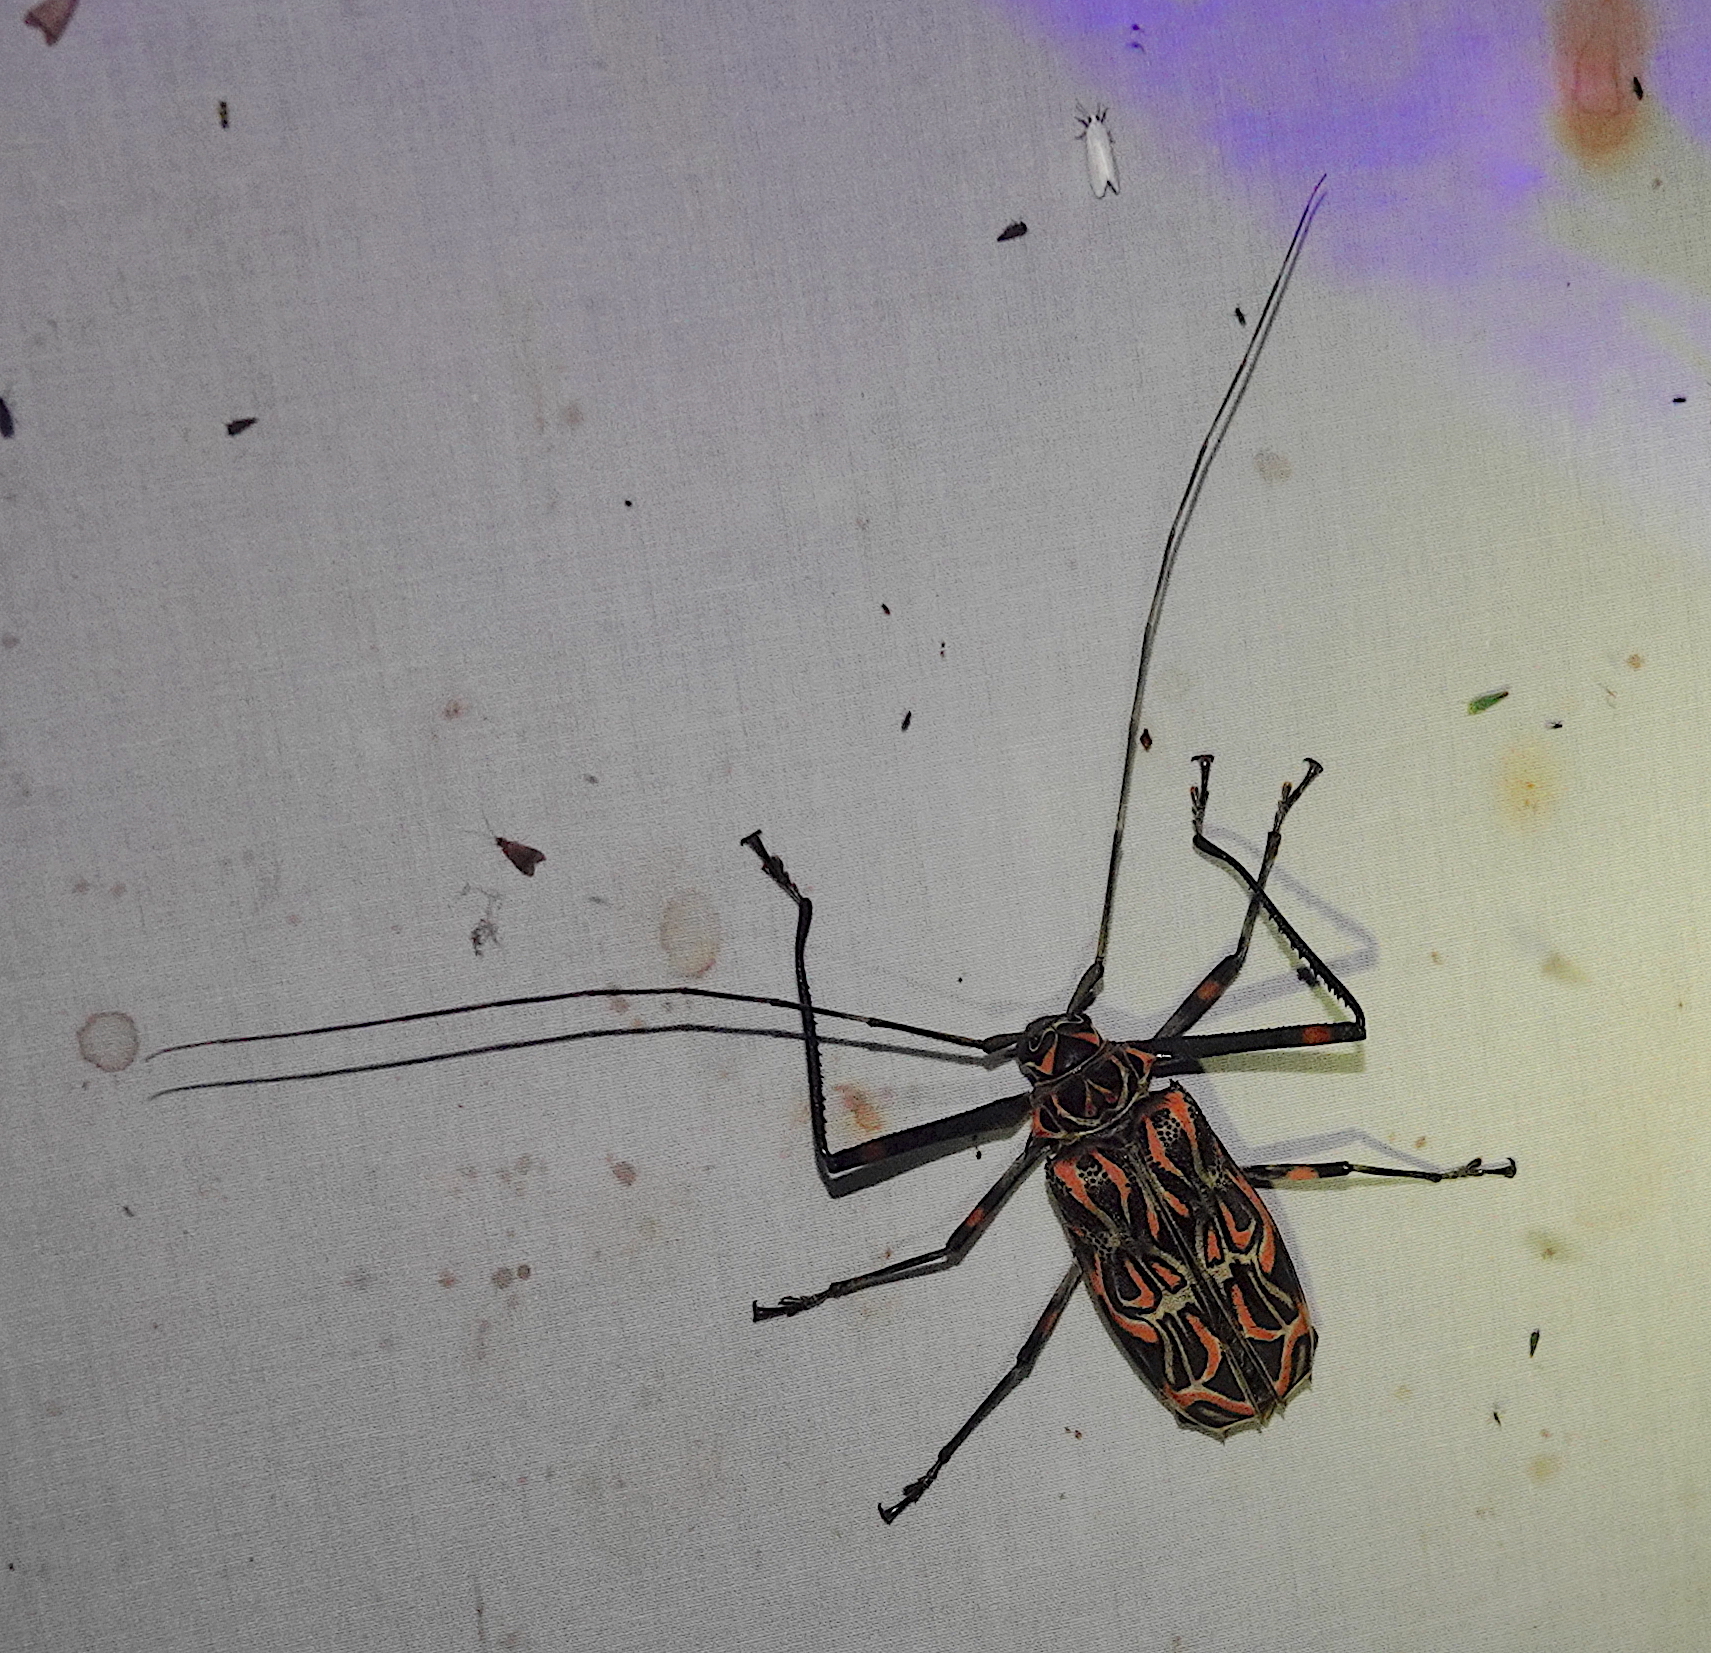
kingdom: Animalia
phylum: Arthropoda
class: Insecta
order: Coleoptera
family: Cerambycidae
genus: Acrocinus
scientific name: Acrocinus longimanus
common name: Arlequin
